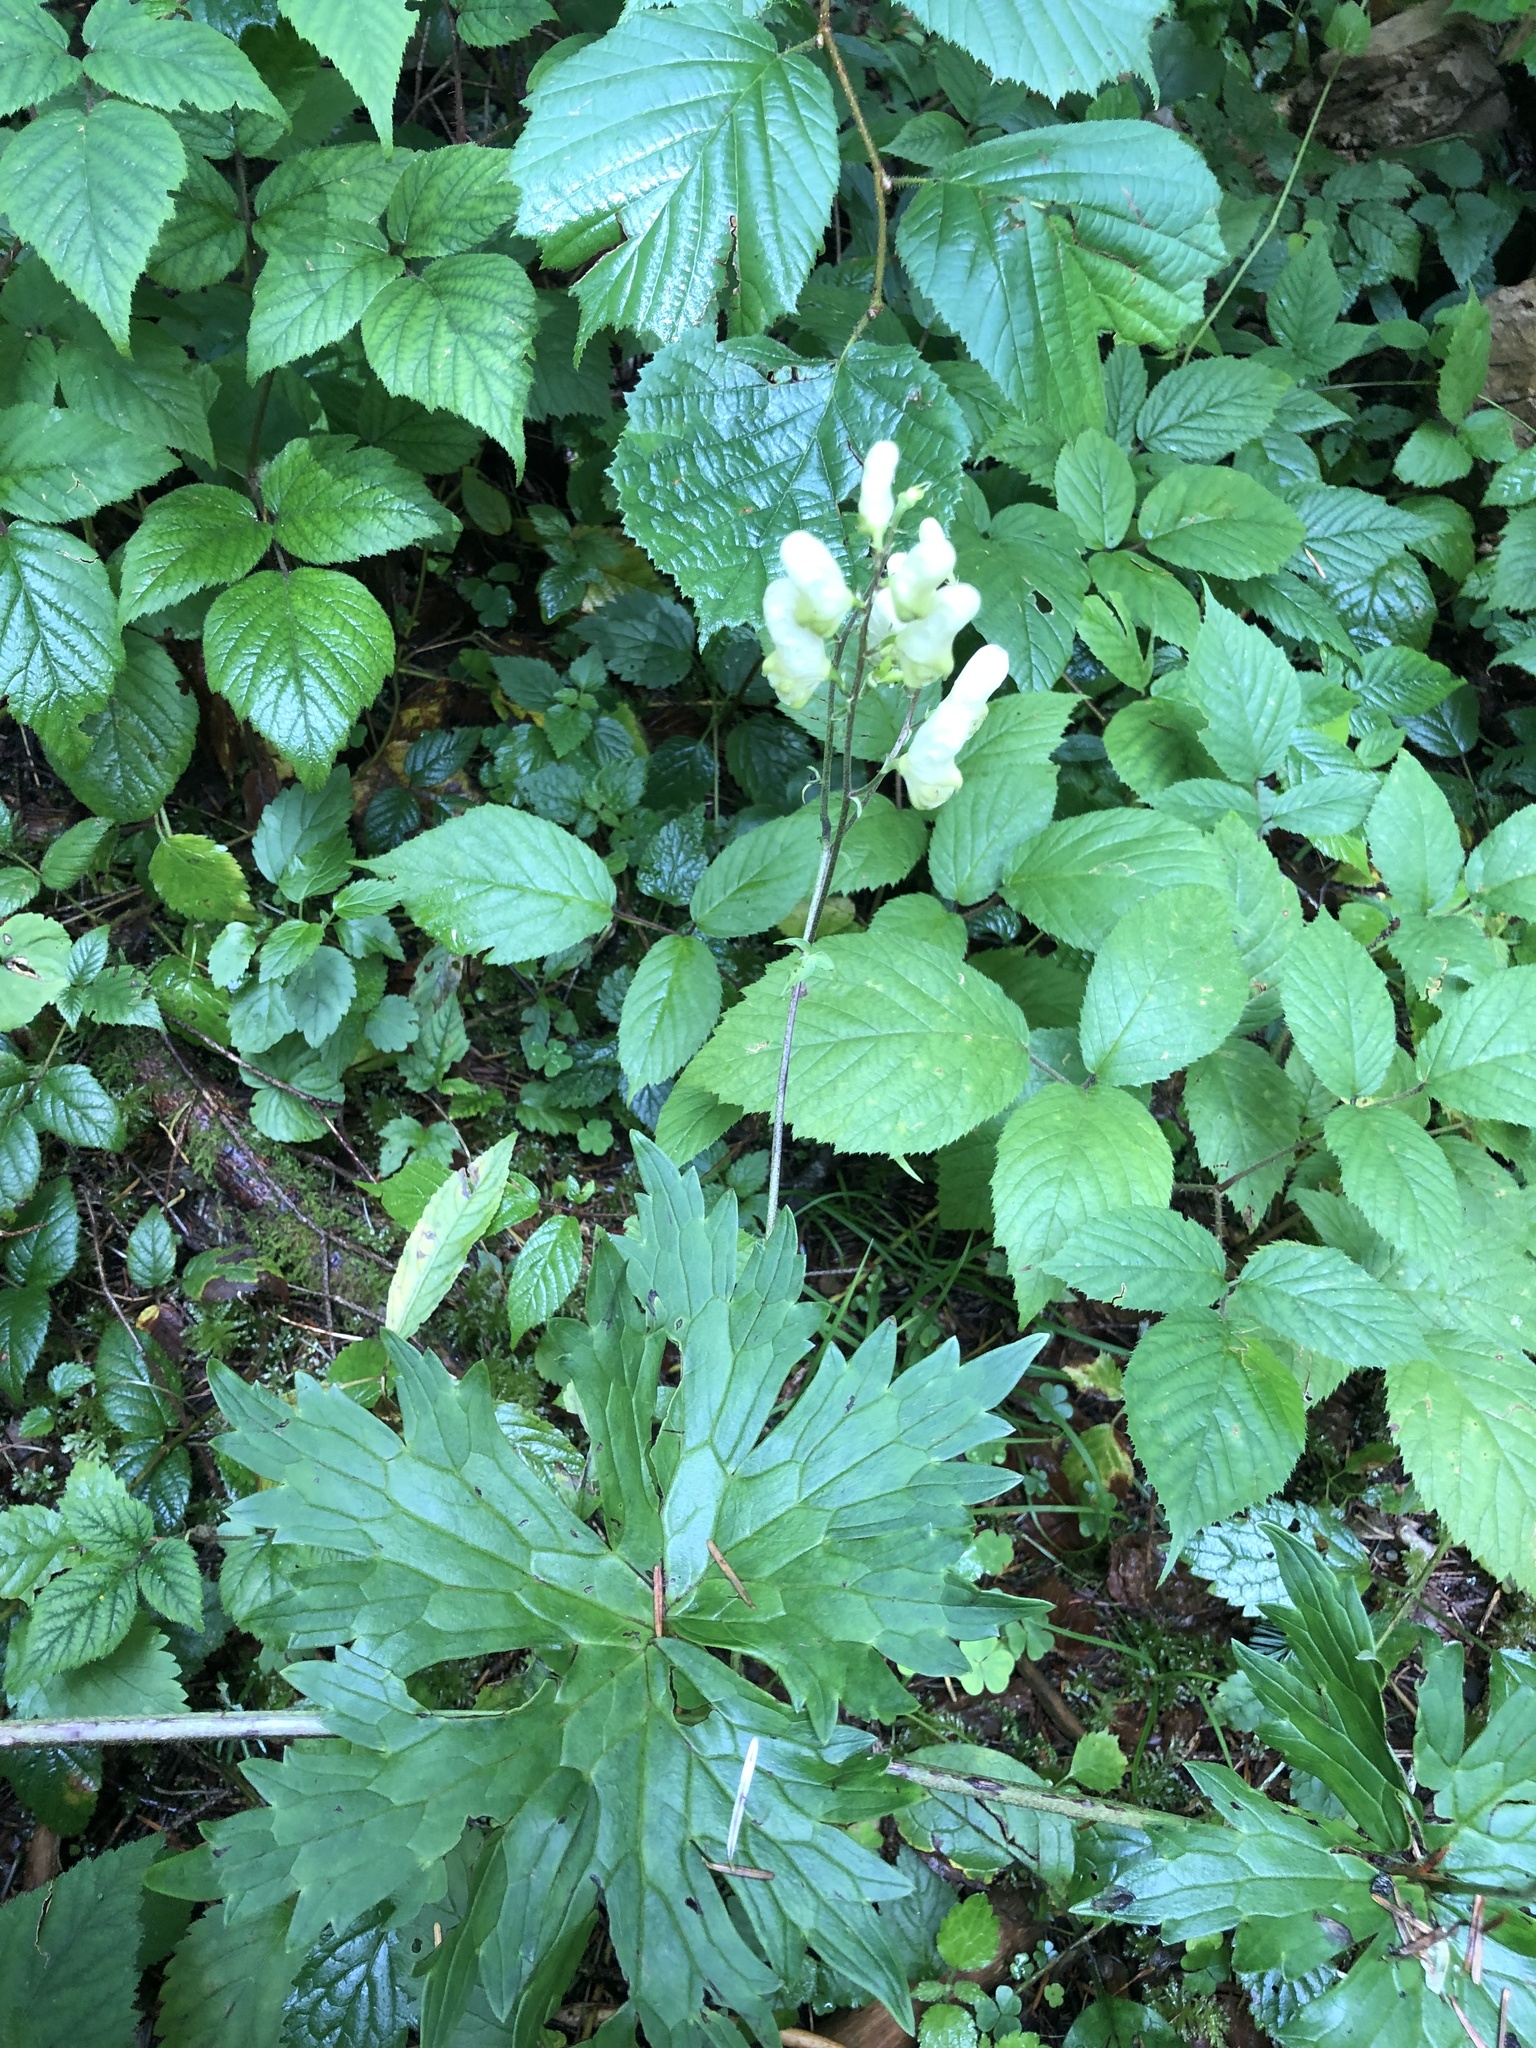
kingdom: Plantae
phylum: Tracheophyta
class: Magnoliopsida
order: Ranunculales
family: Ranunculaceae
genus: Aconitum
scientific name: Aconitum lycoctonum
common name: Wolf's-bane
